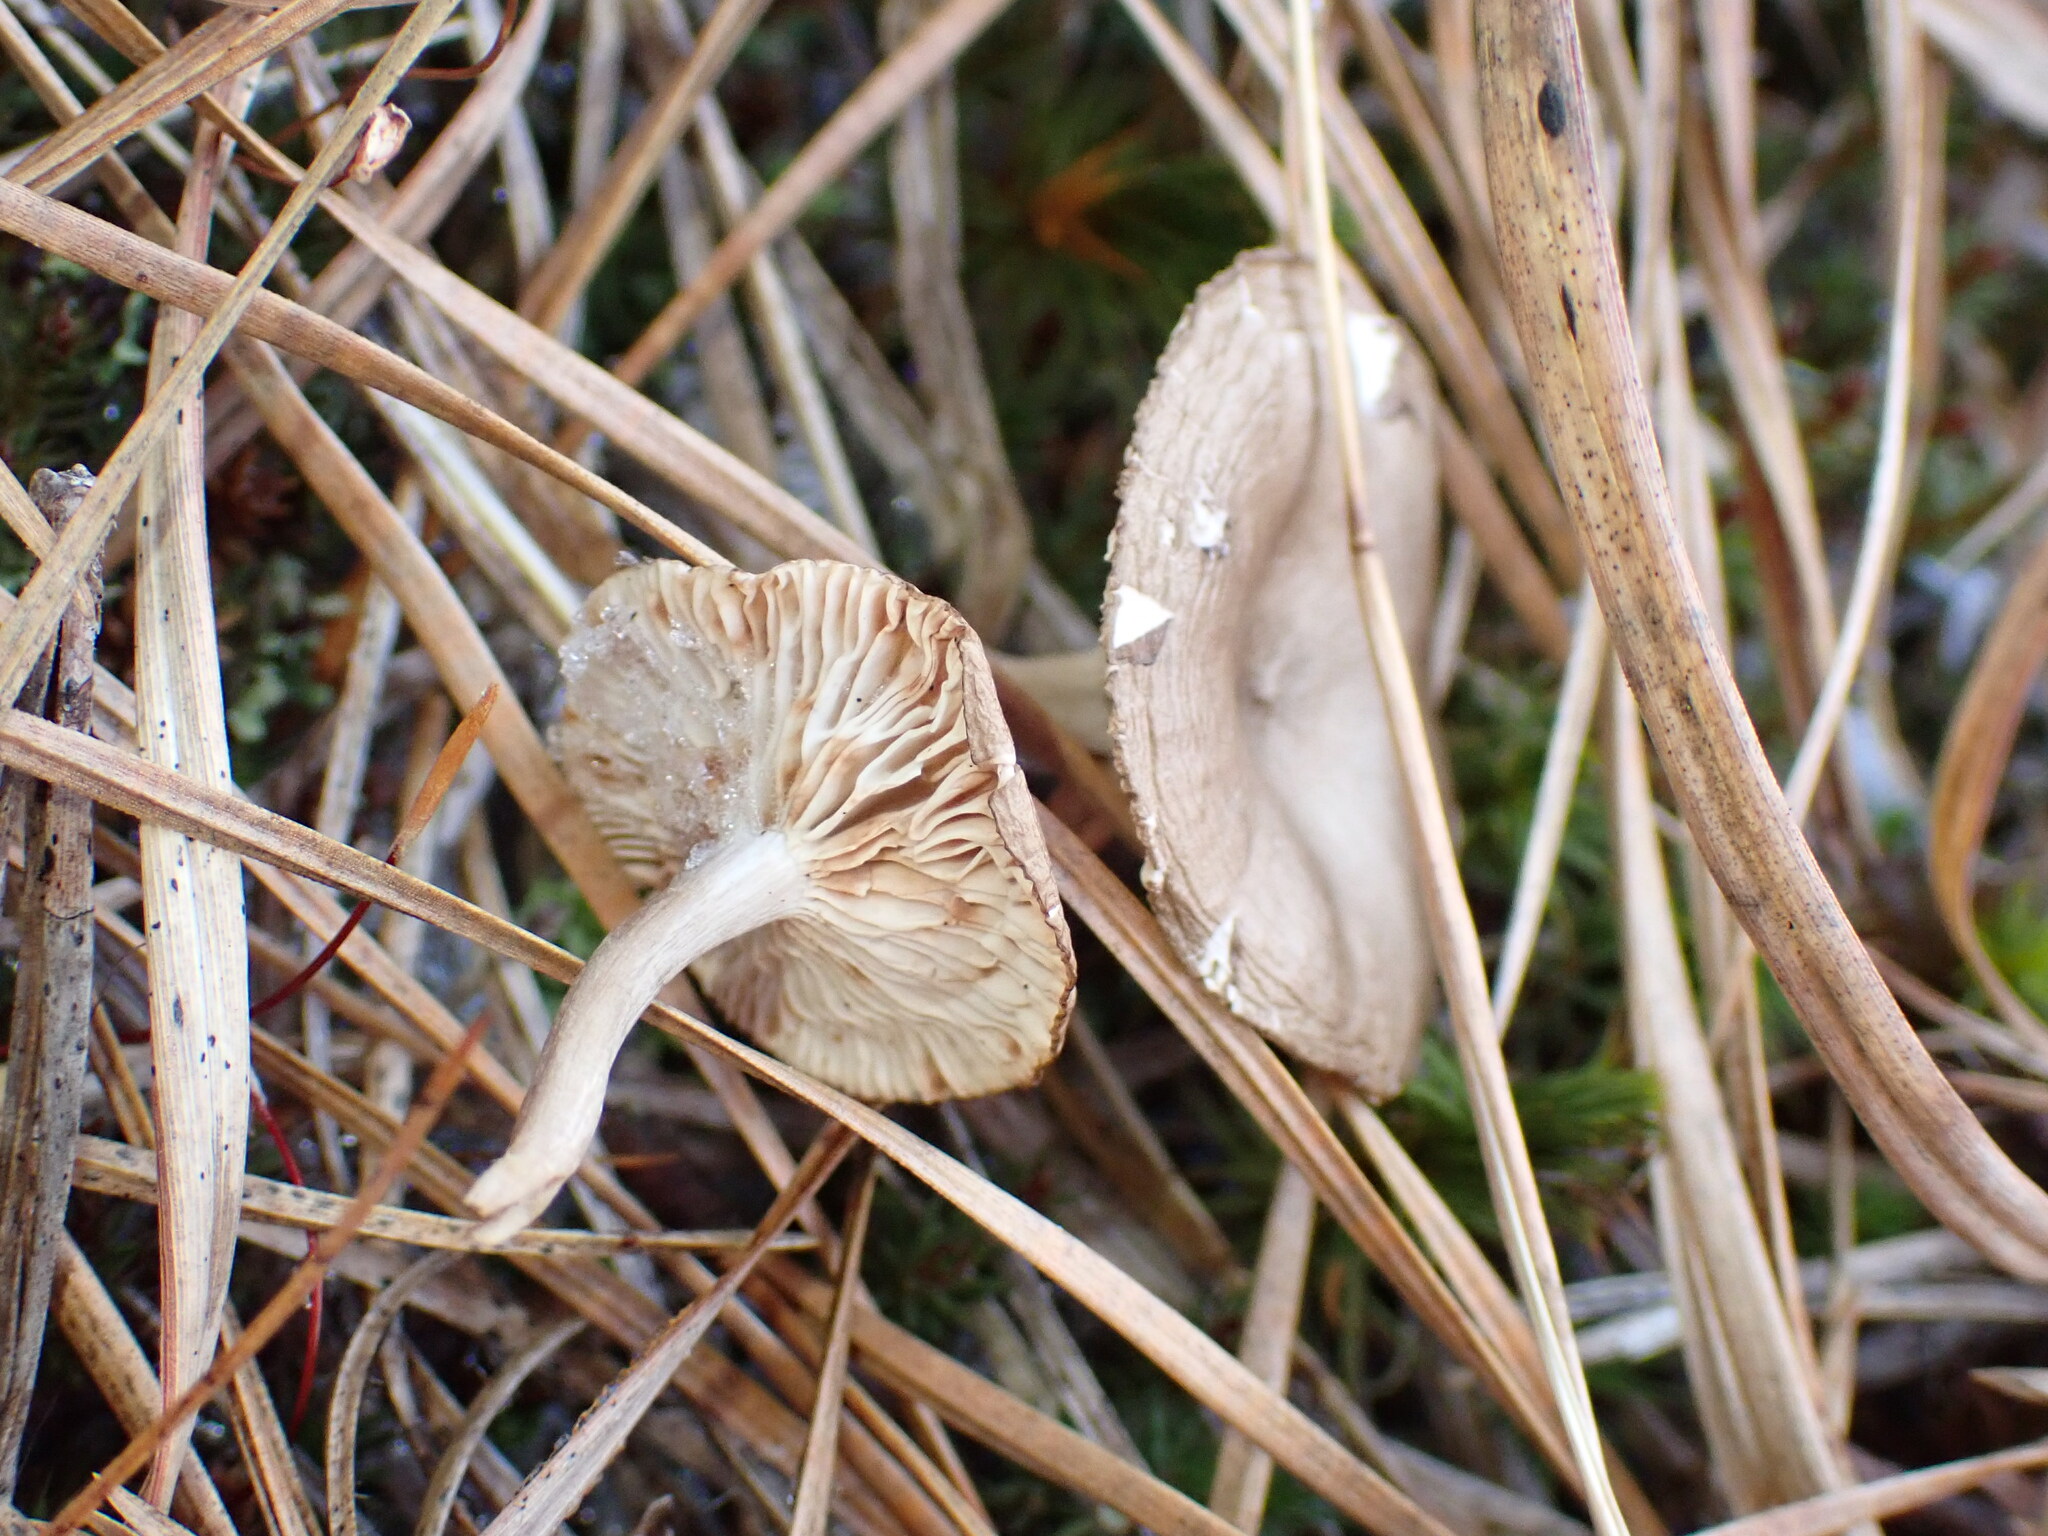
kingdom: Fungi
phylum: Basidiomycota
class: Agaricomycetes
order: Agaricales
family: Hygrophoraceae
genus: Cantharellula
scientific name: Cantharellula umbonata
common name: The humpback
